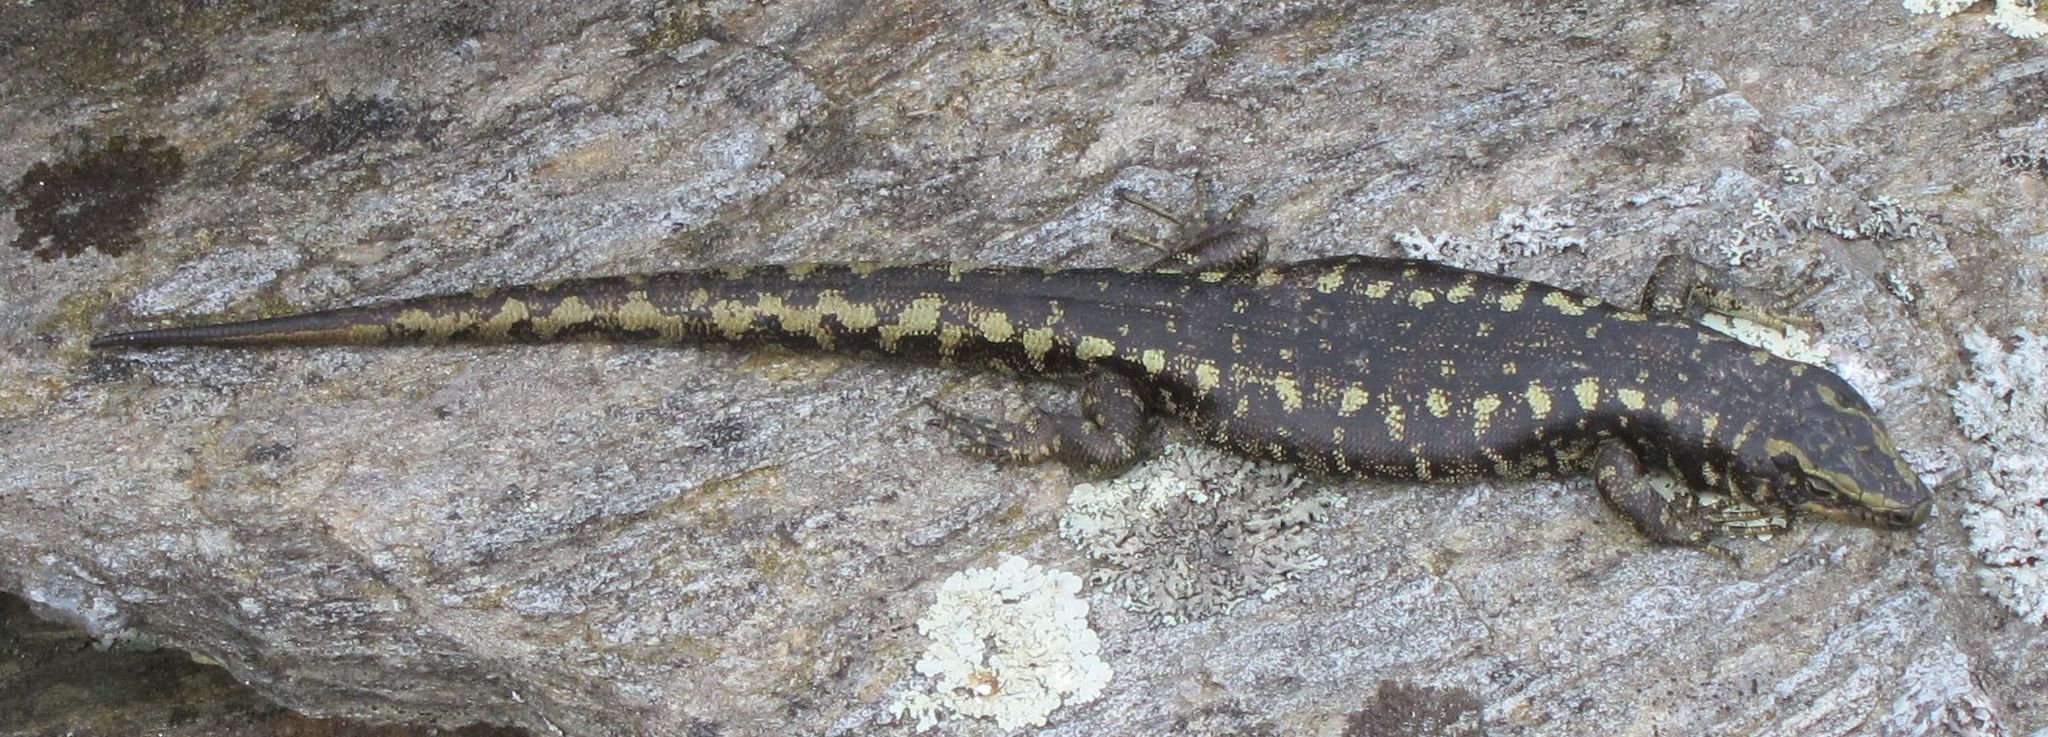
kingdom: Animalia
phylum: Chordata
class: Squamata
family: Scincidae
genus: Oligosoma
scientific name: Oligosoma otagense
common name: Otago skink
